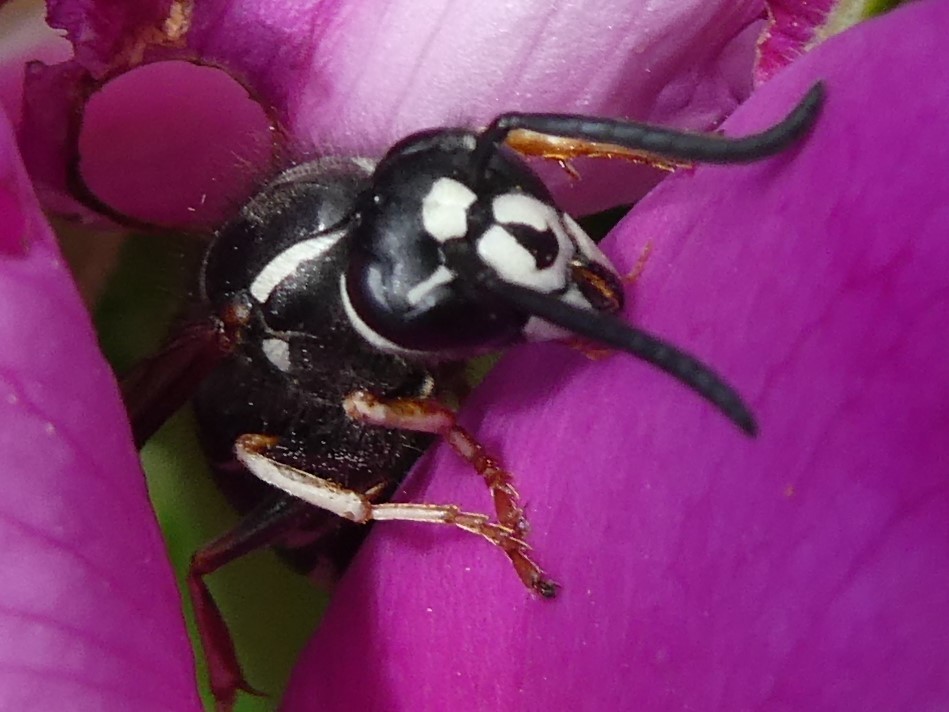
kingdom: Animalia
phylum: Arthropoda
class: Insecta
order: Hymenoptera
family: Vespidae
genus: Vespula
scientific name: Vespula consobrina
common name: Blackjacket
